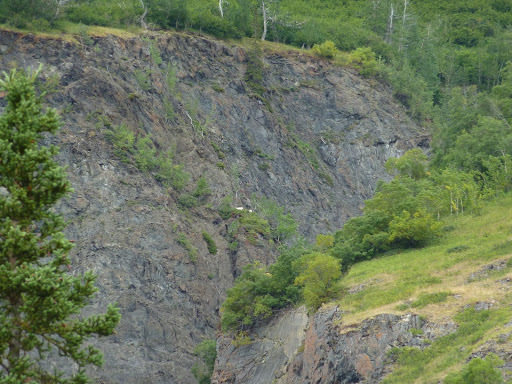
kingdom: Animalia
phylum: Chordata
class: Mammalia
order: Artiodactyla
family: Bovidae
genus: Oreamnos
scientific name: Oreamnos americanus
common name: Mountain goat
